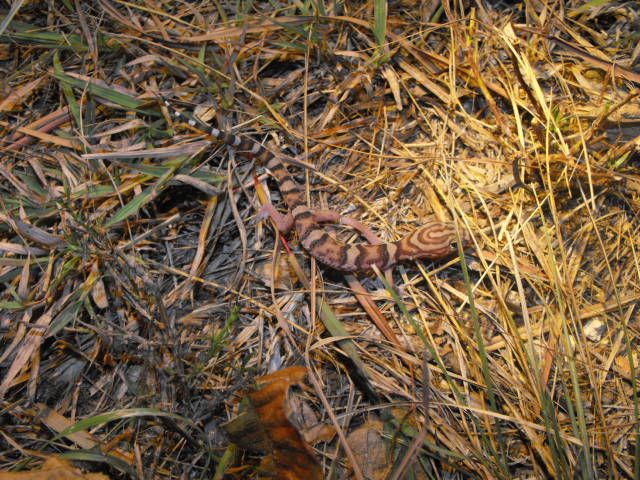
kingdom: Animalia
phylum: Chordata
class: Squamata
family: Eublepharidae
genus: Coleonyx
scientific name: Coleonyx elegans
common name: Yucatan banded gecko
